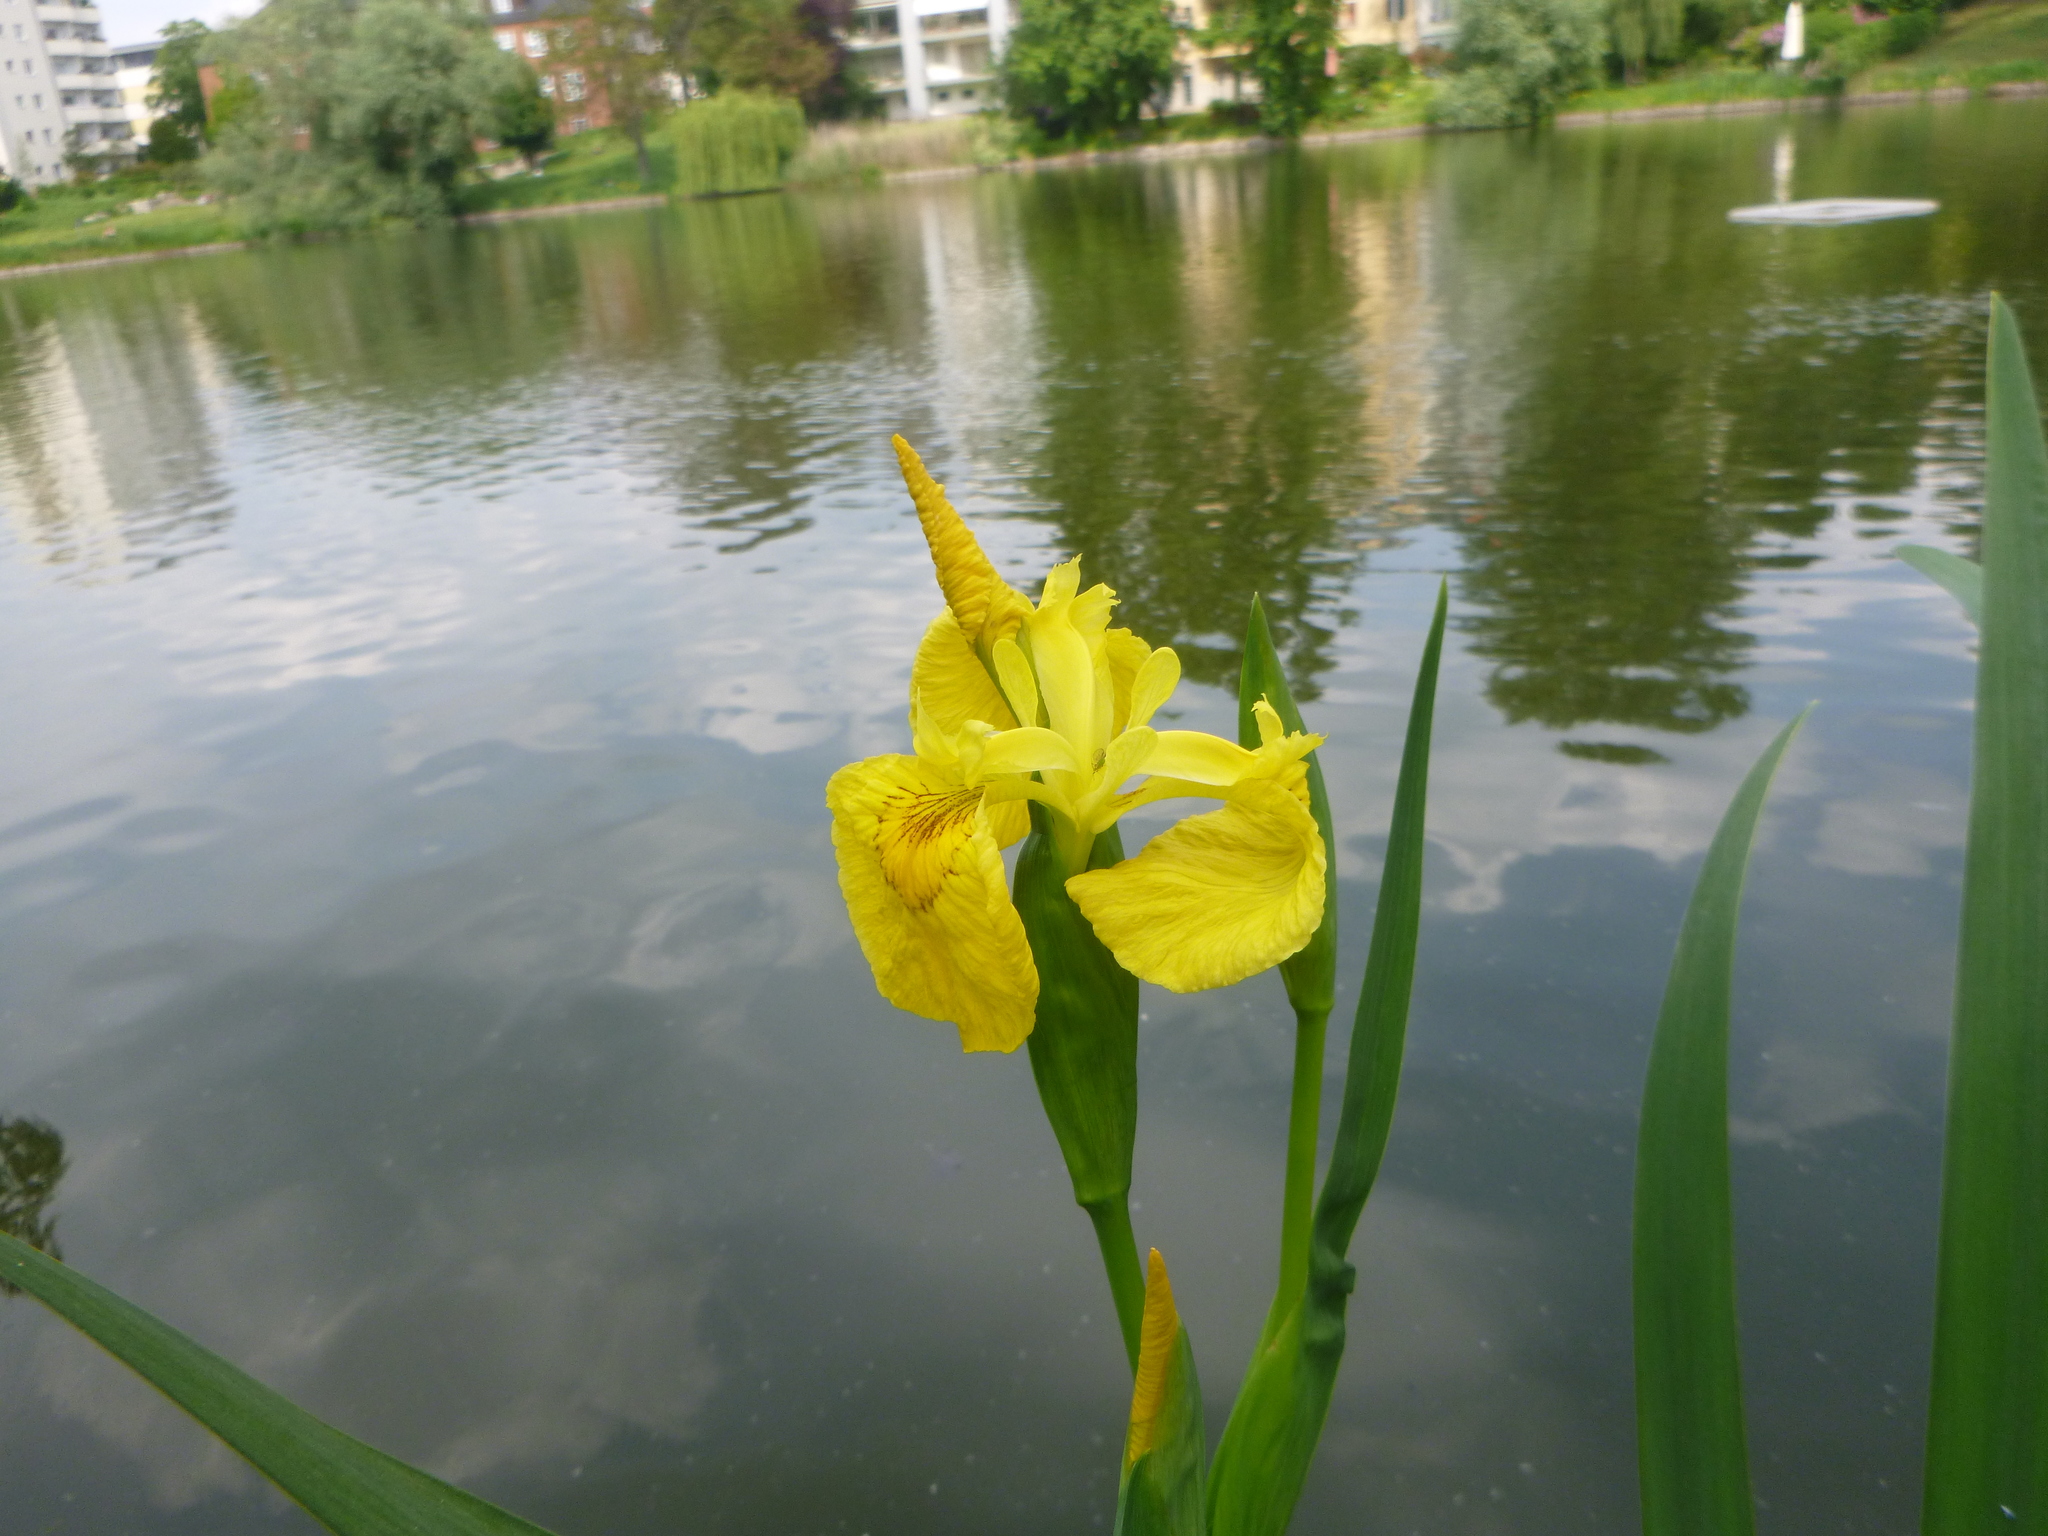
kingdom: Plantae
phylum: Tracheophyta
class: Liliopsida
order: Asparagales
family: Iridaceae
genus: Iris
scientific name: Iris pseudacorus
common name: Yellow flag
